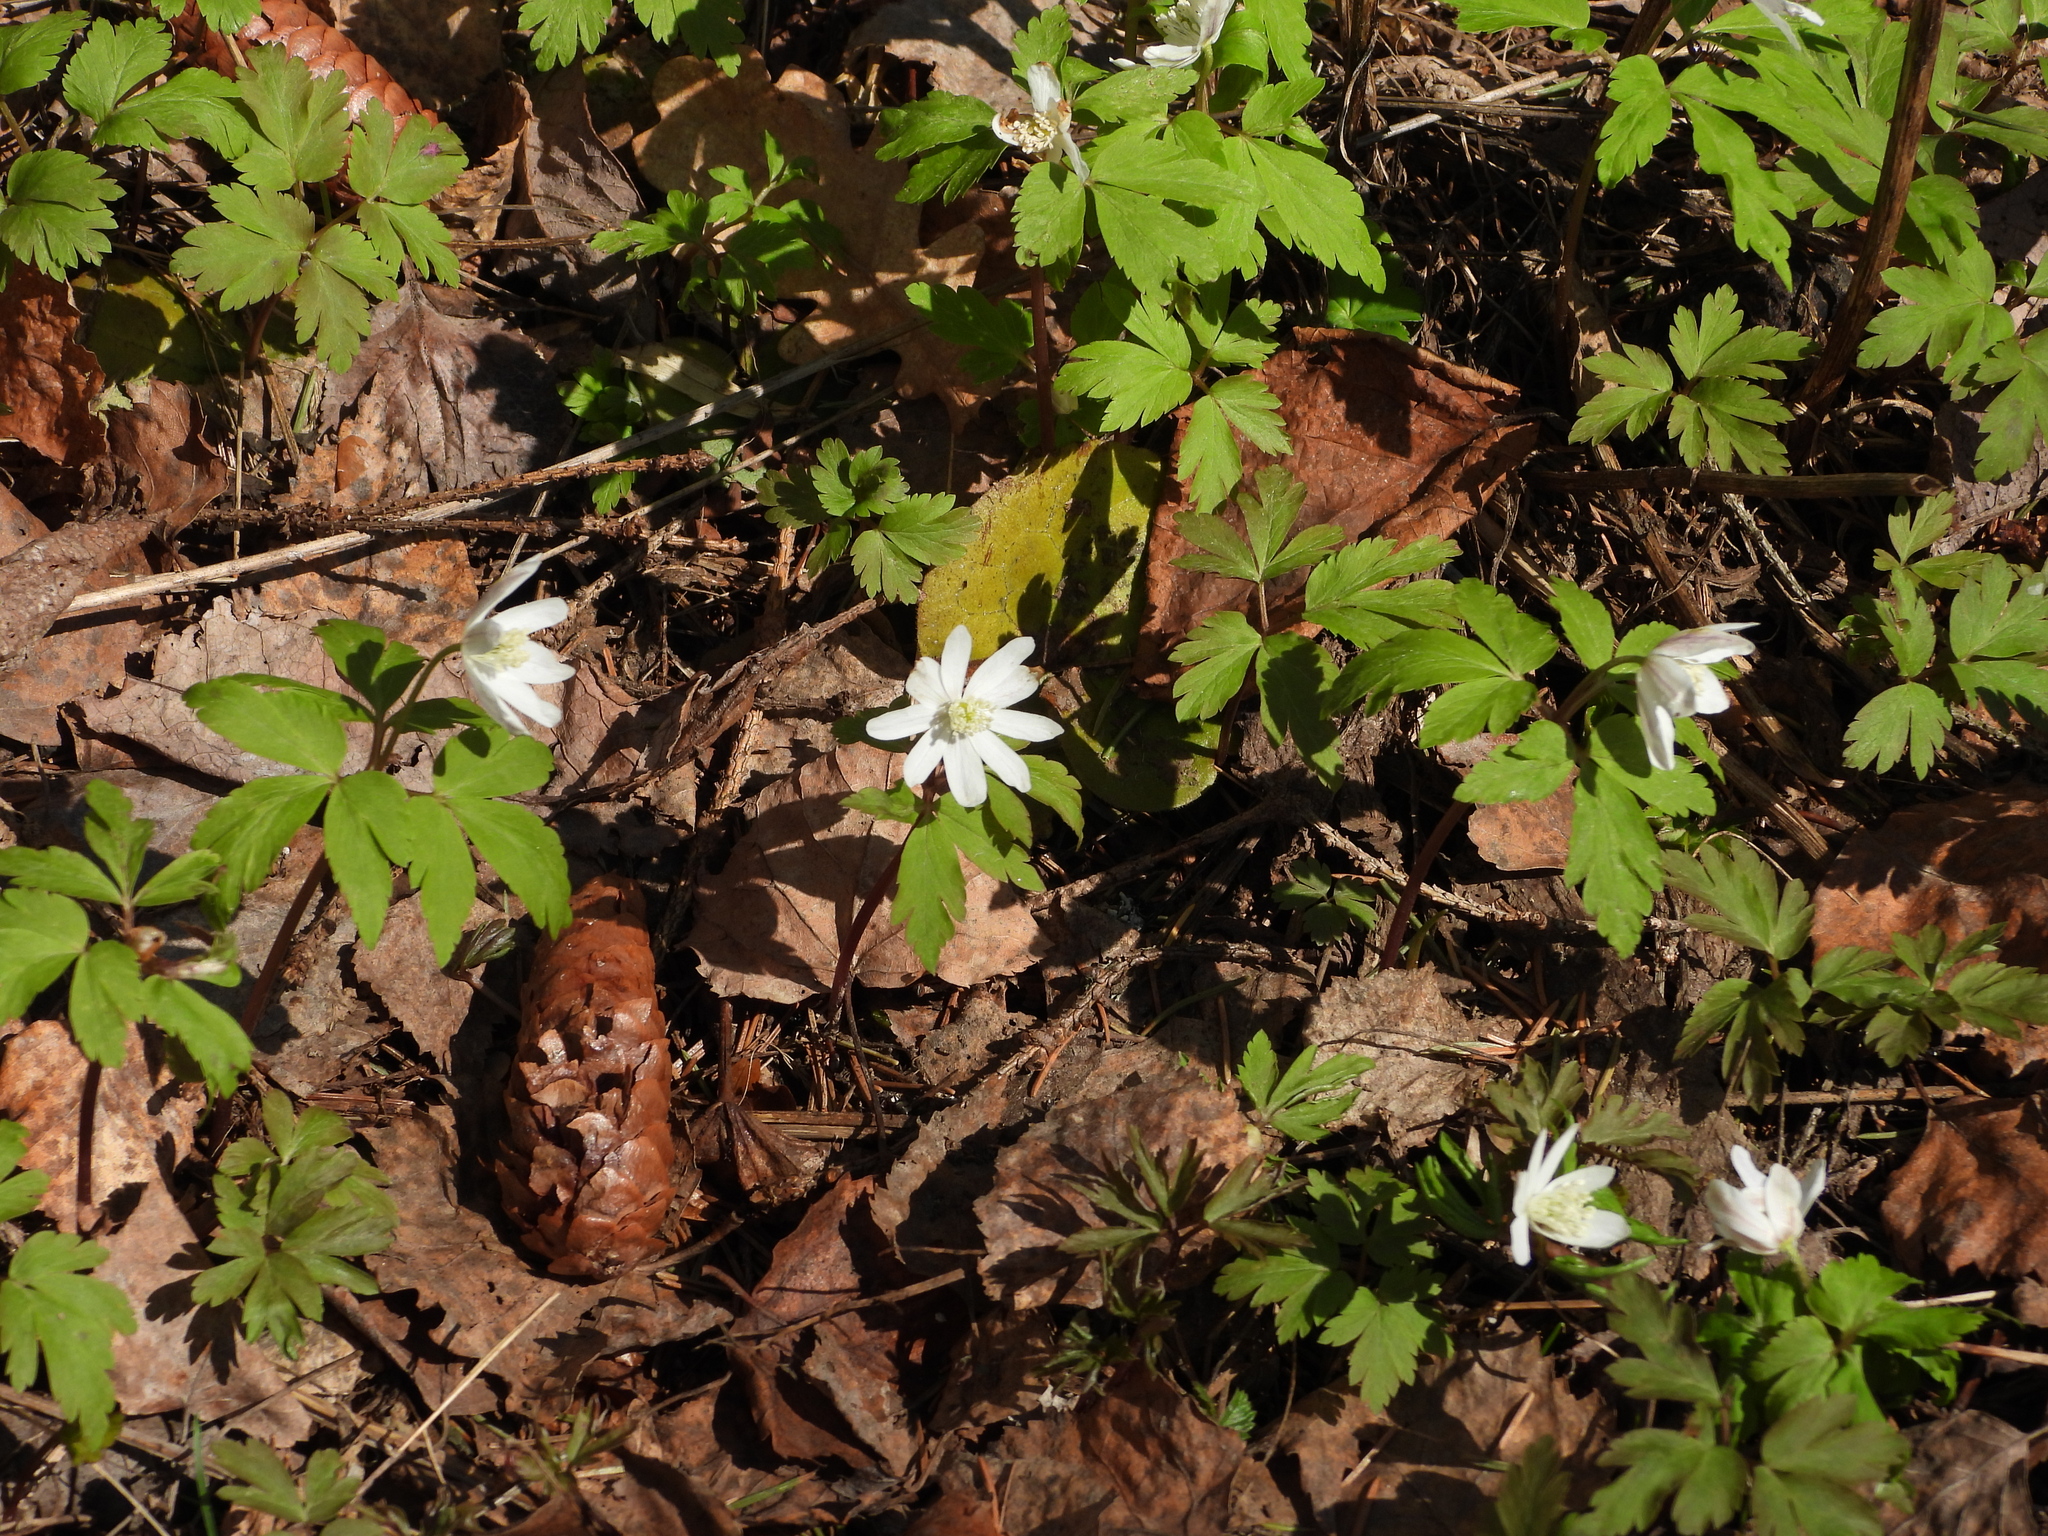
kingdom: Plantae
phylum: Tracheophyta
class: Magnoliopsida
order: Ranunculales
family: Ranunculaceae
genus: Anemone
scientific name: Anemone altaica
